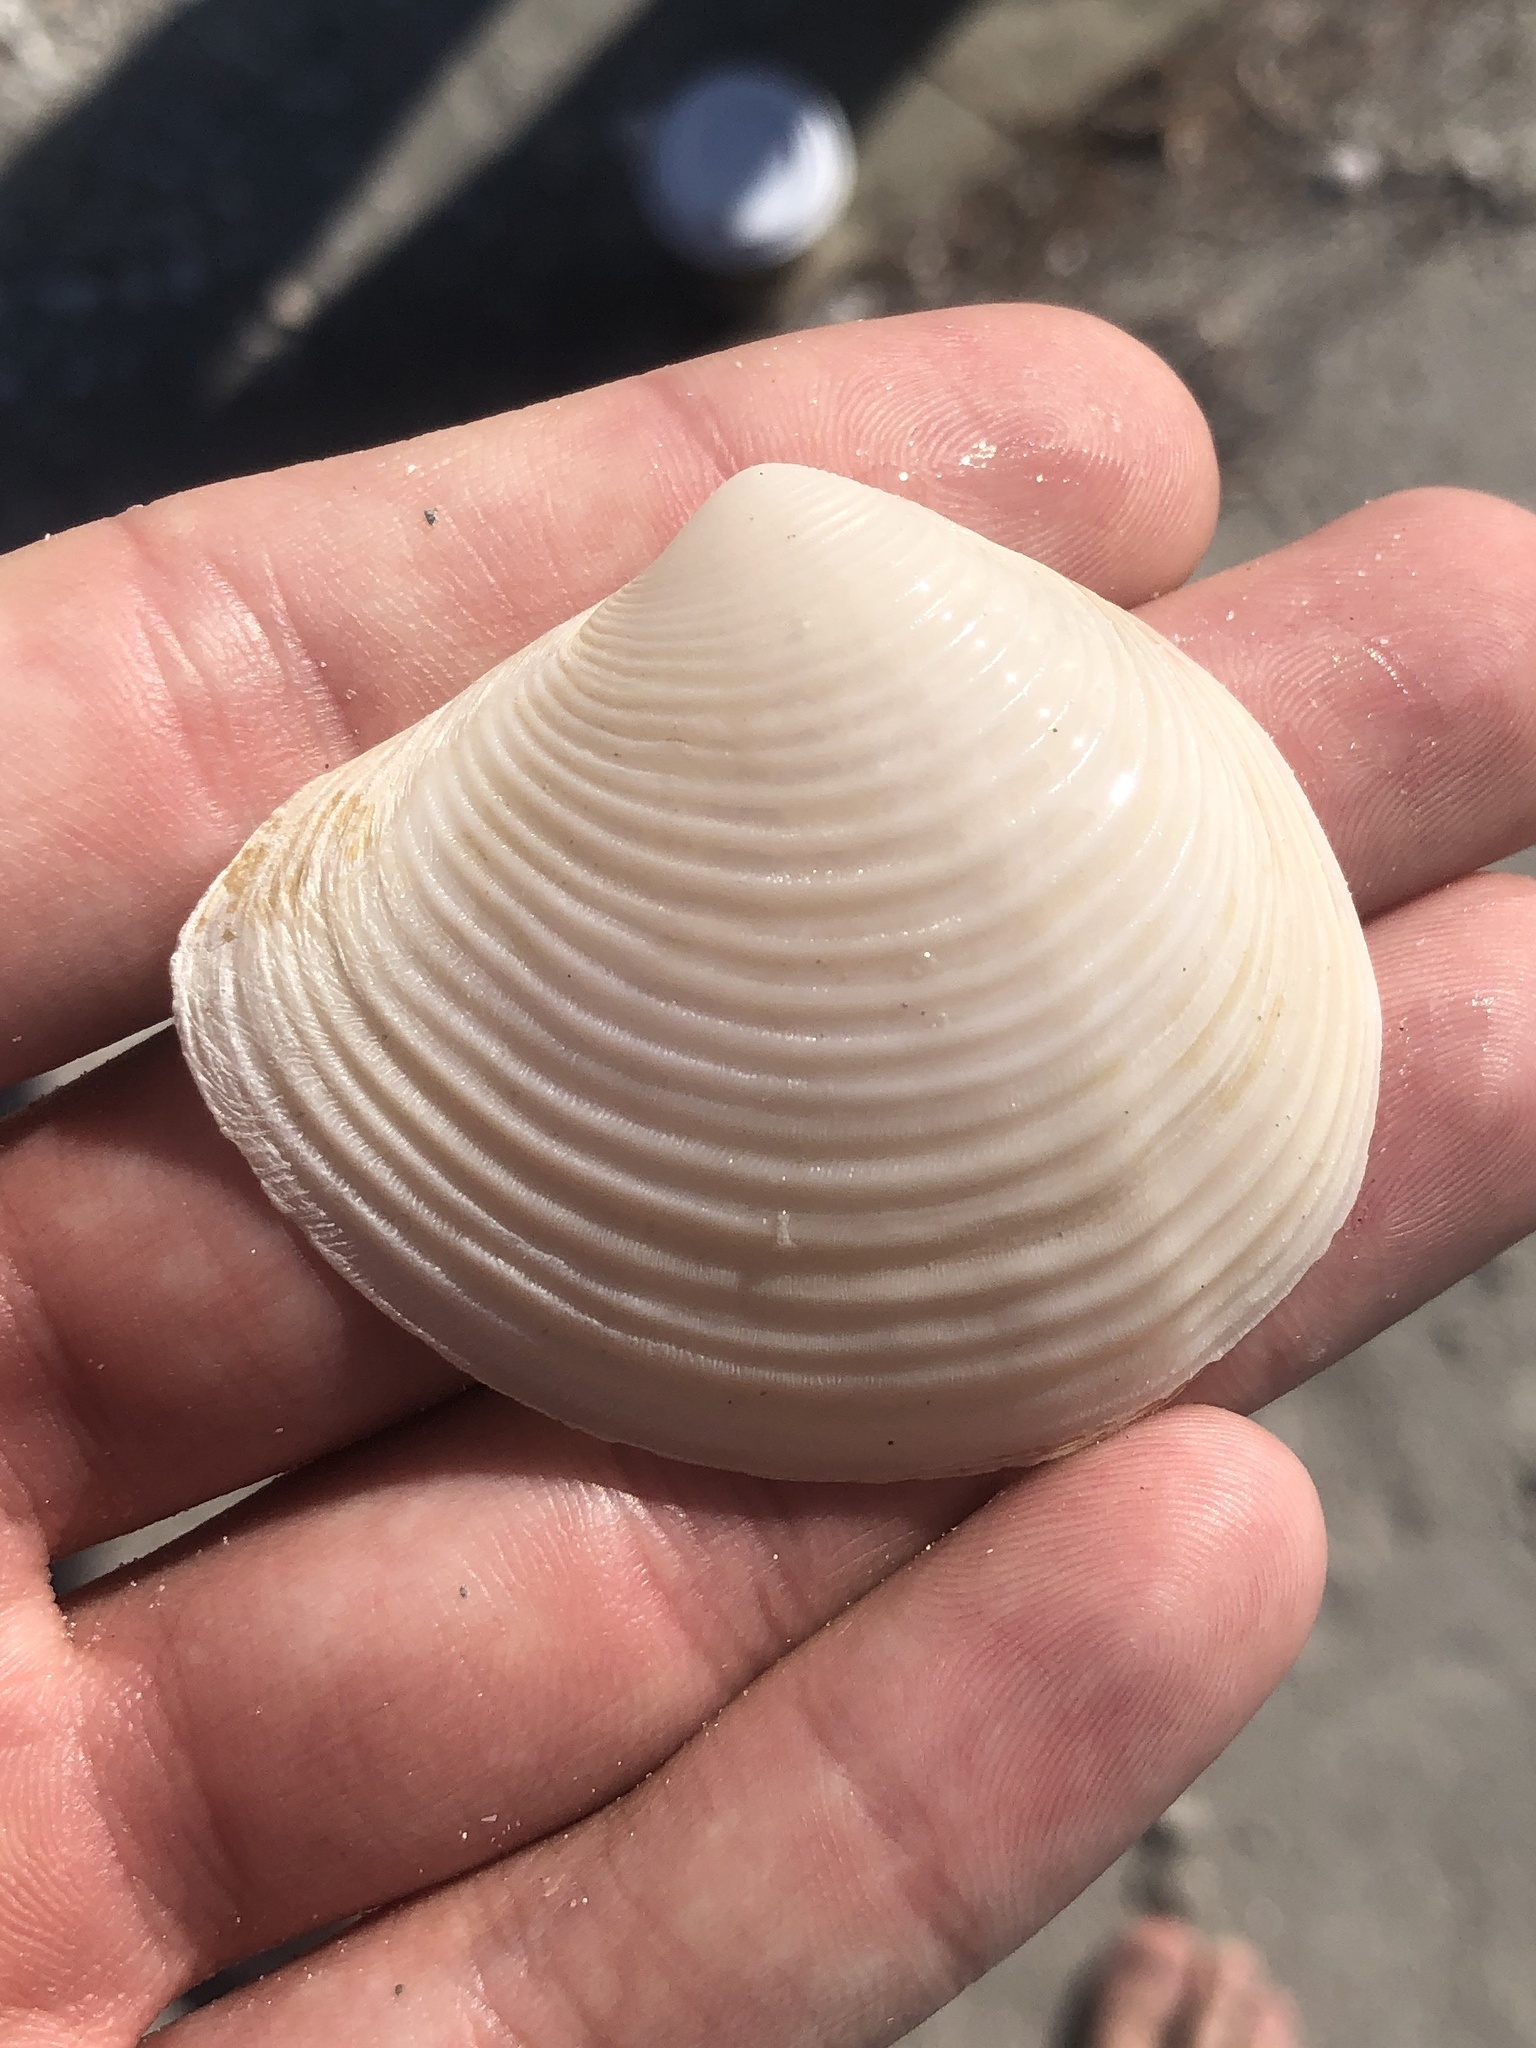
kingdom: Animalia
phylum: Mollusca
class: Bivalvia
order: Venerida
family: Anatinellidae
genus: Raeta
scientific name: Raeta plicatella
